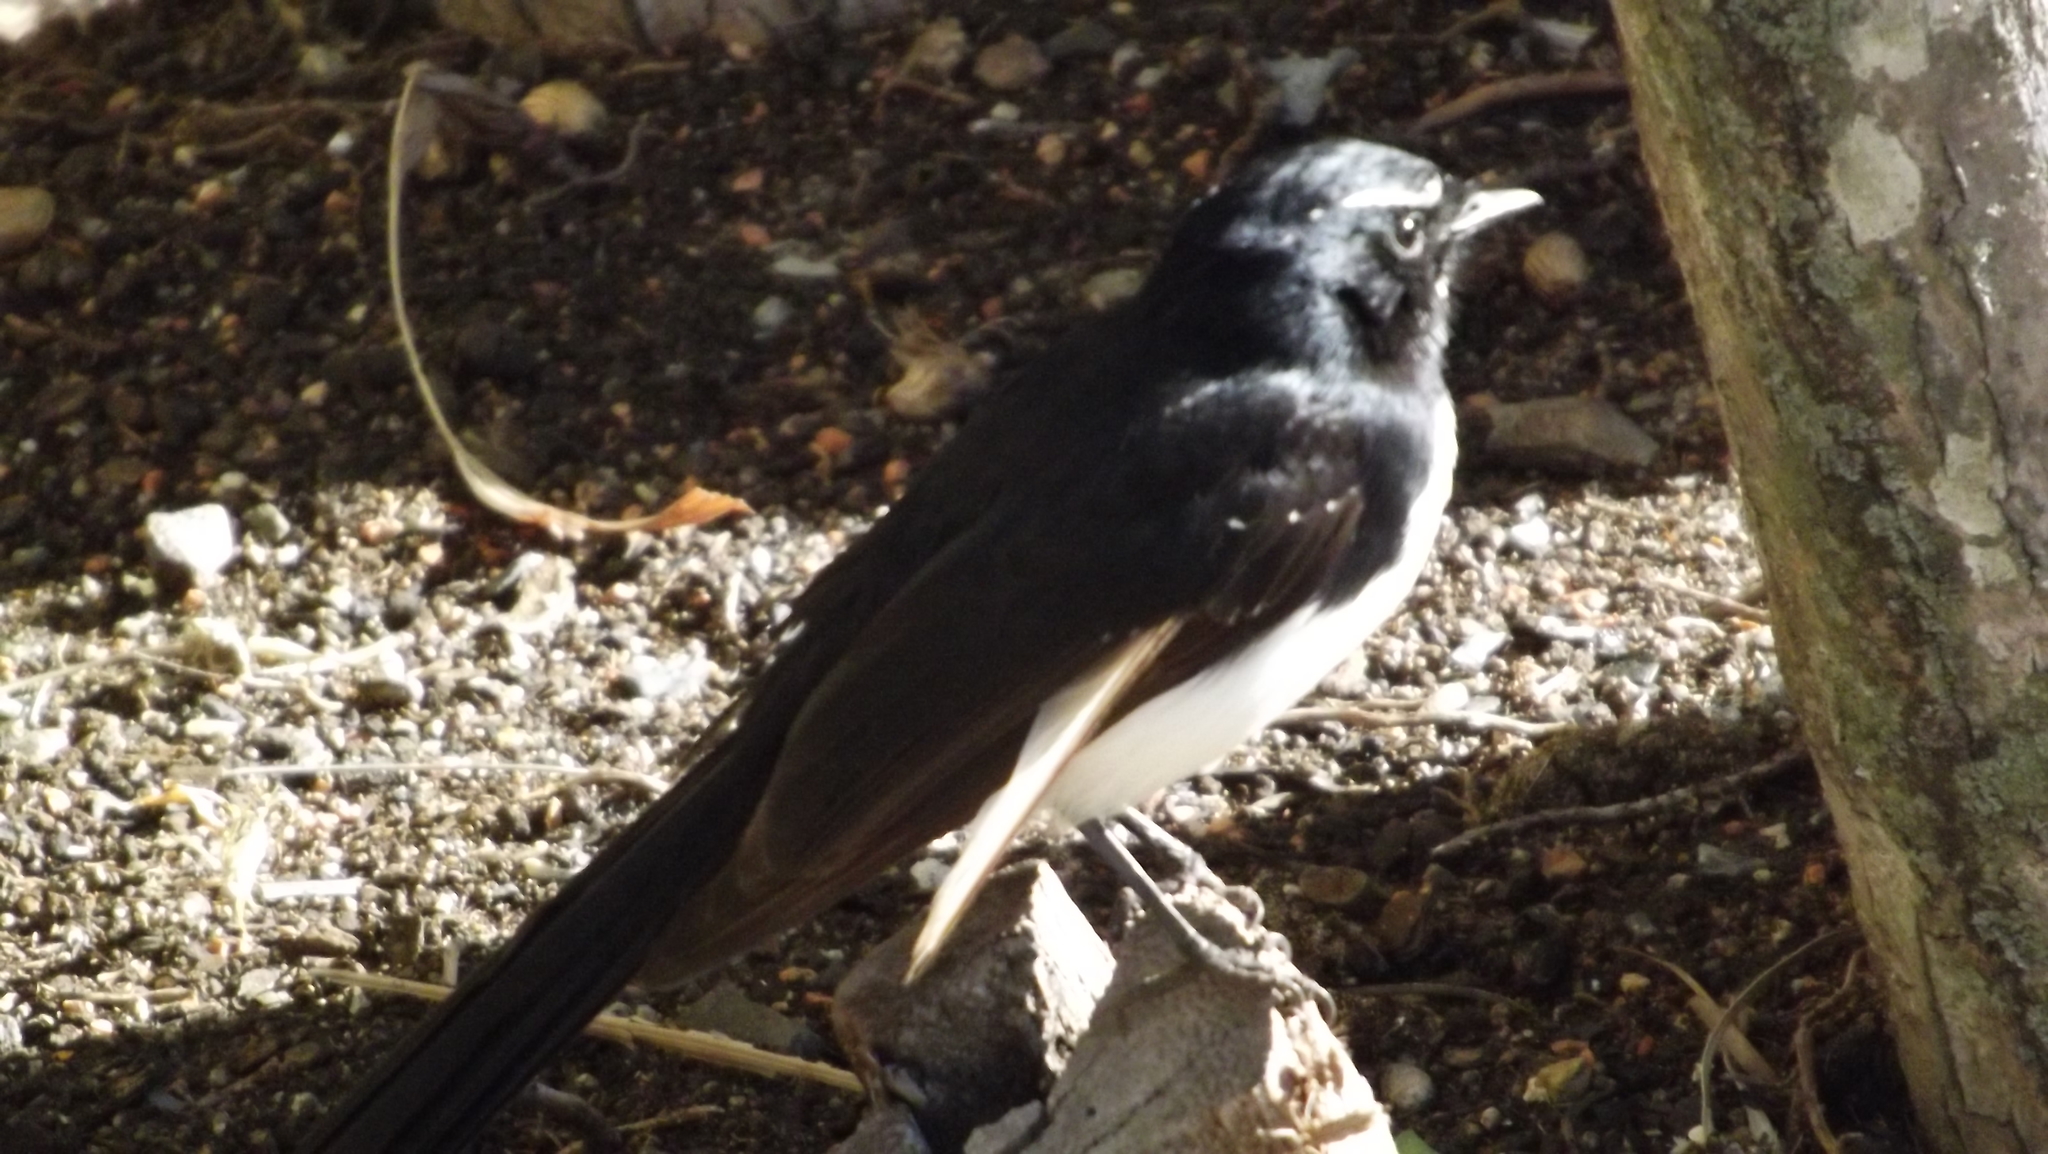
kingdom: Animalia
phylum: Chordata
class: Aves
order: Passeriformes
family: Rhipiduridae
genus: Rhipidura
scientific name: Rhipidura leucophrys
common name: Willie wagtail
